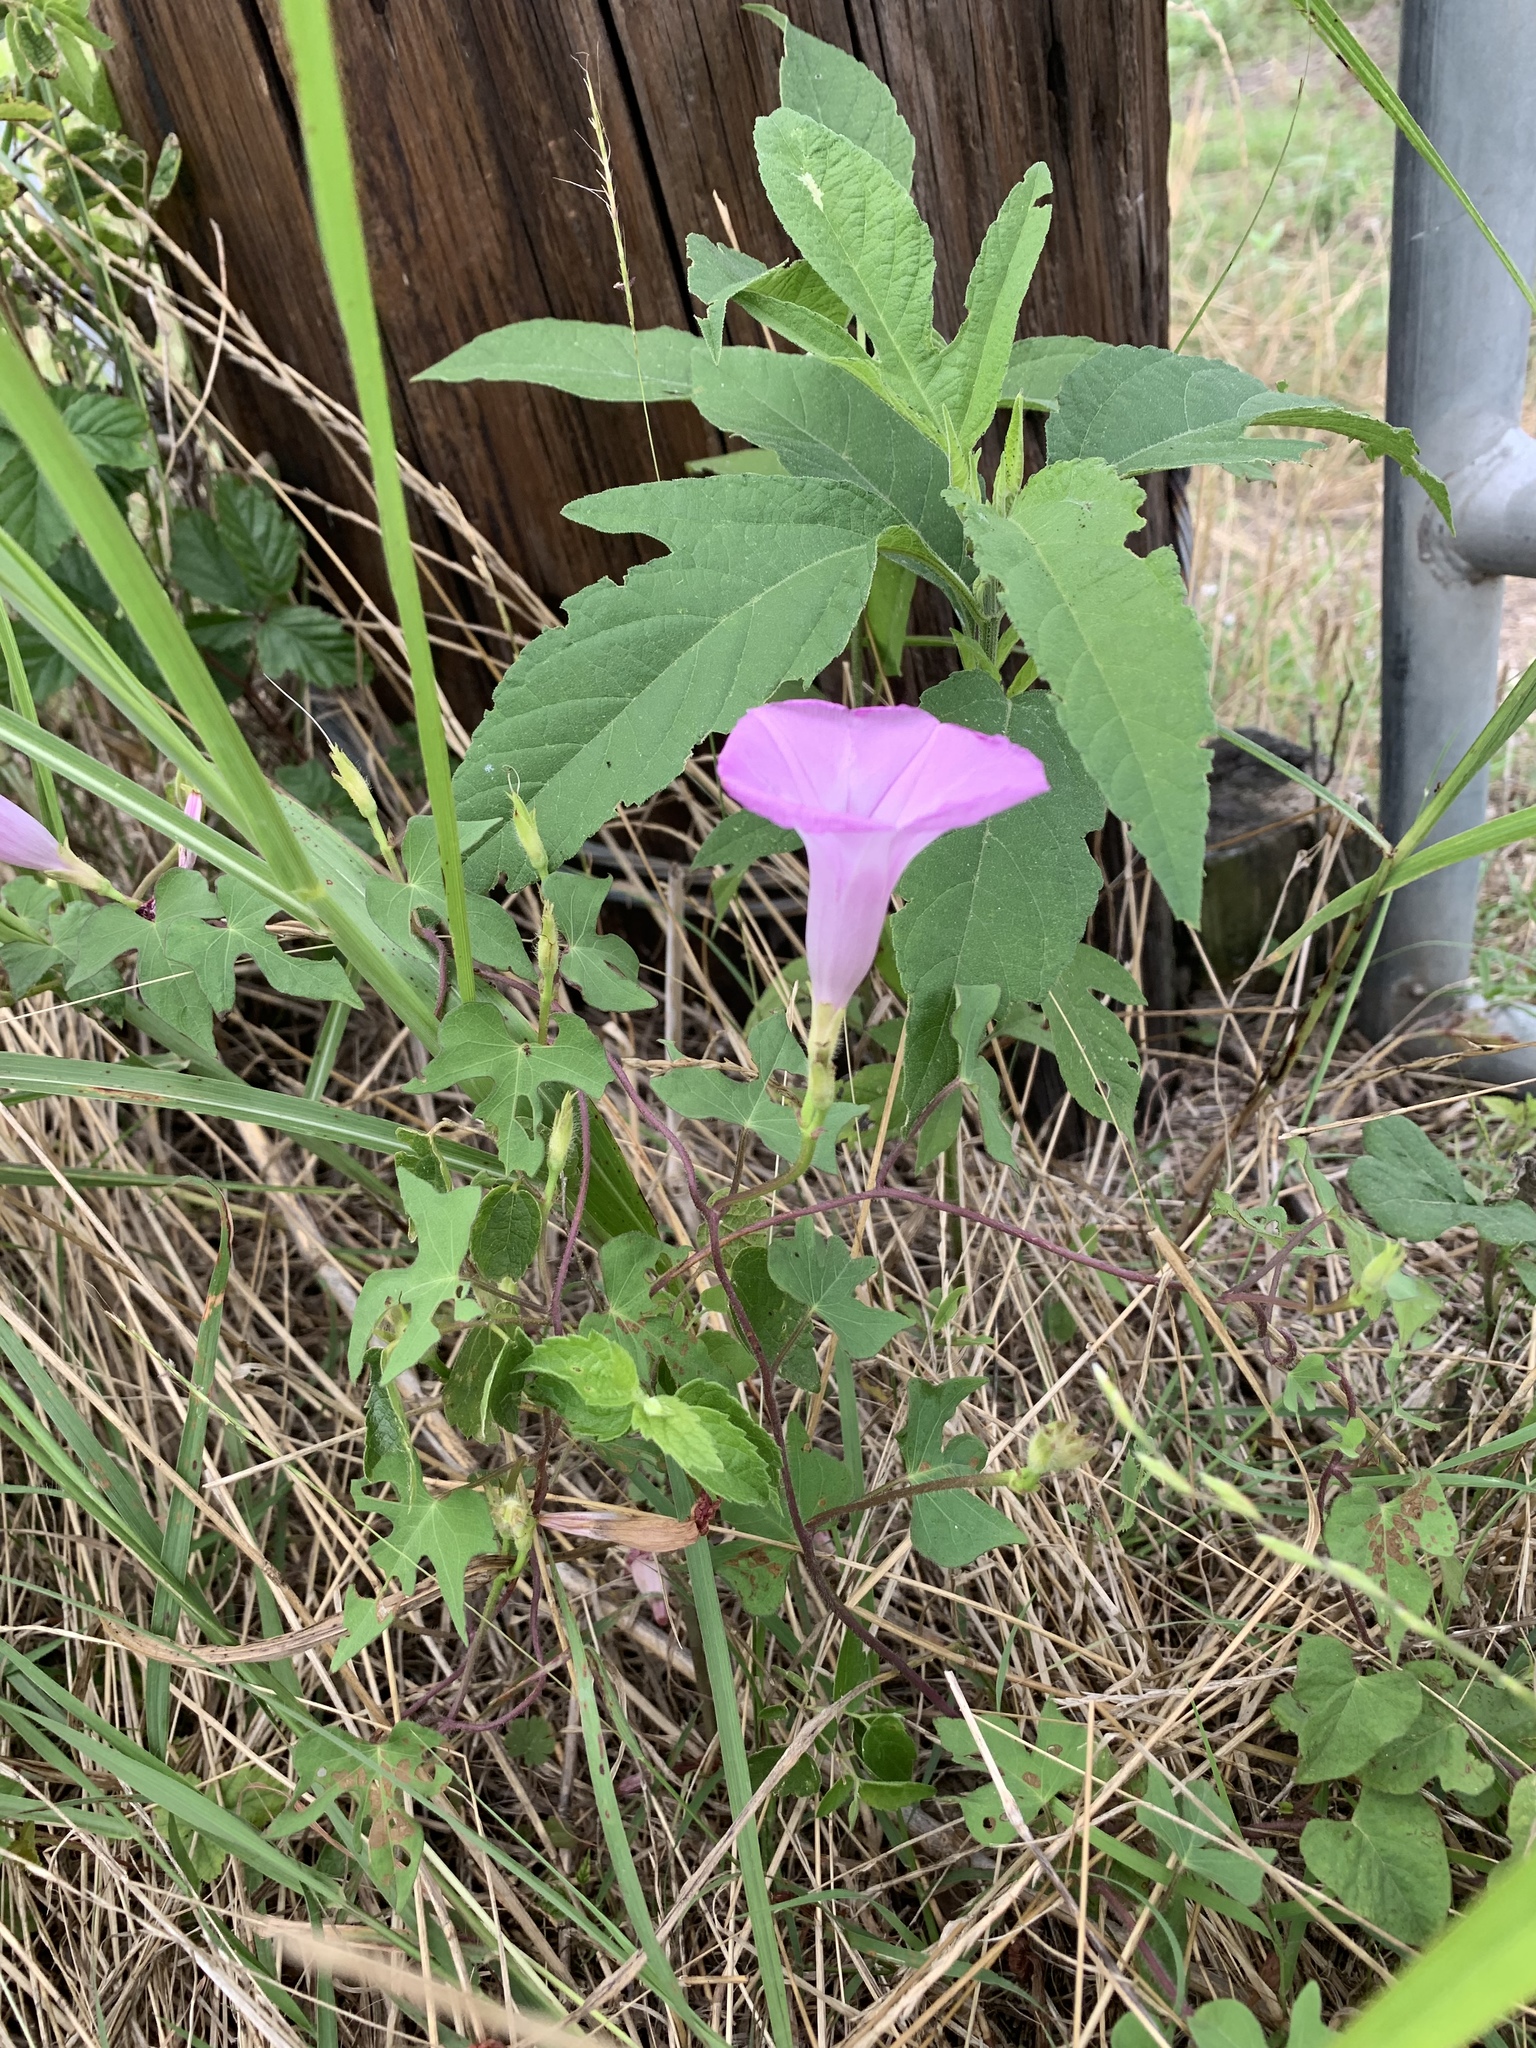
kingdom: Plantae
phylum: Tracheophyta
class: Magnoliopsida
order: Solanales
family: Convolvulaceae
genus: Ipomoea
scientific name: Ipomoea cordatotriloba
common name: Cotton morning glory
